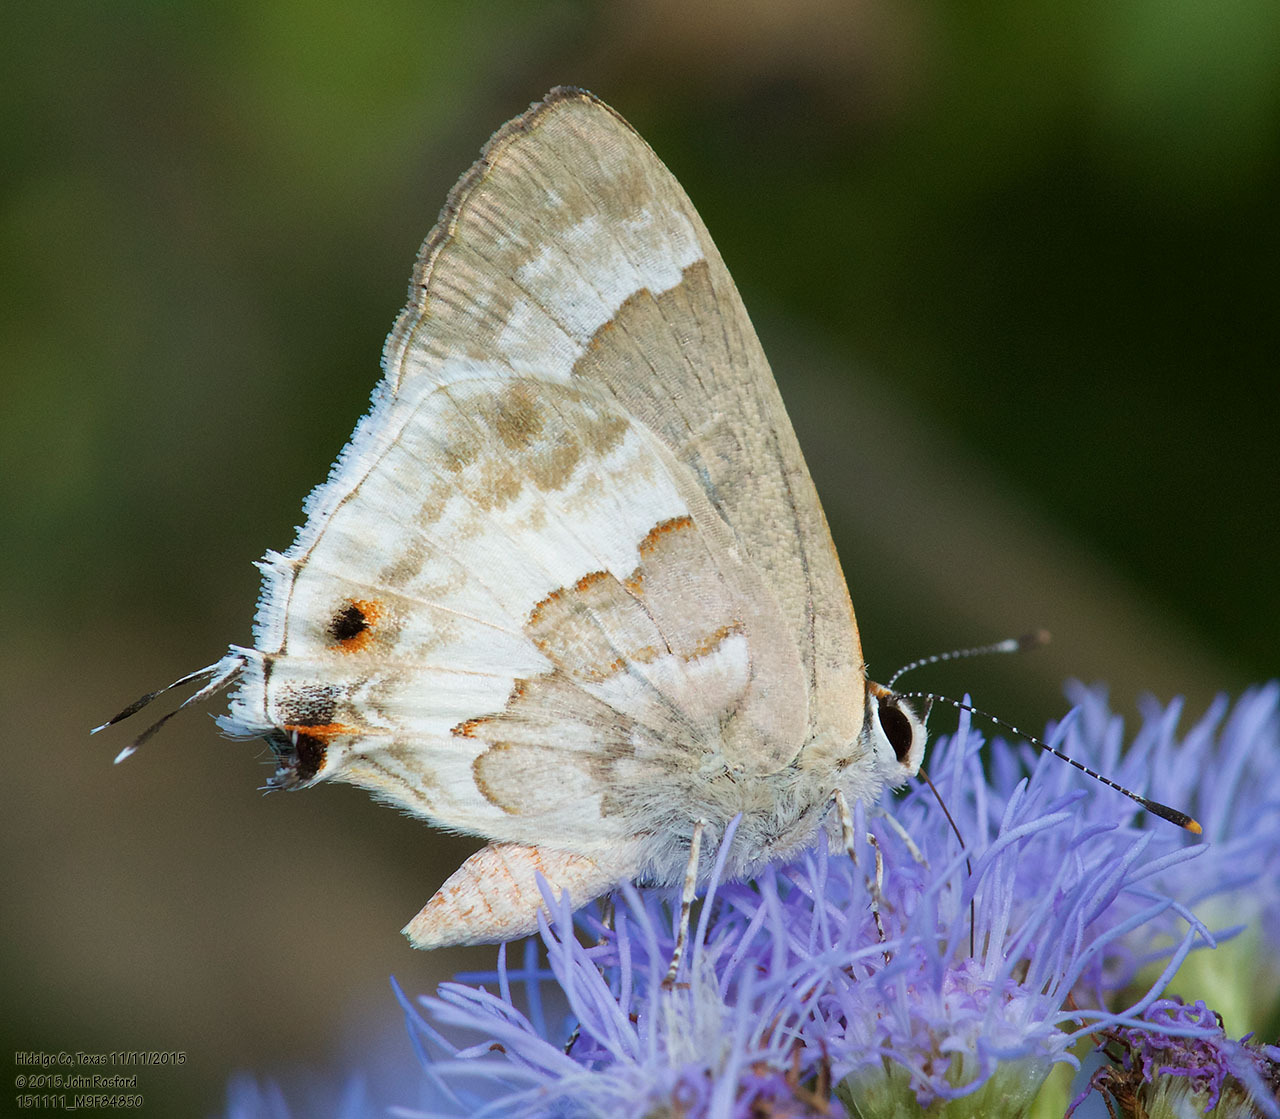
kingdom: Animalia
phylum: Arthropoda
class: Insecta
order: Lepidoptera
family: Lycaenidae
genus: Strymon
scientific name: Strymon albata
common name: White scrub-hairstreak
